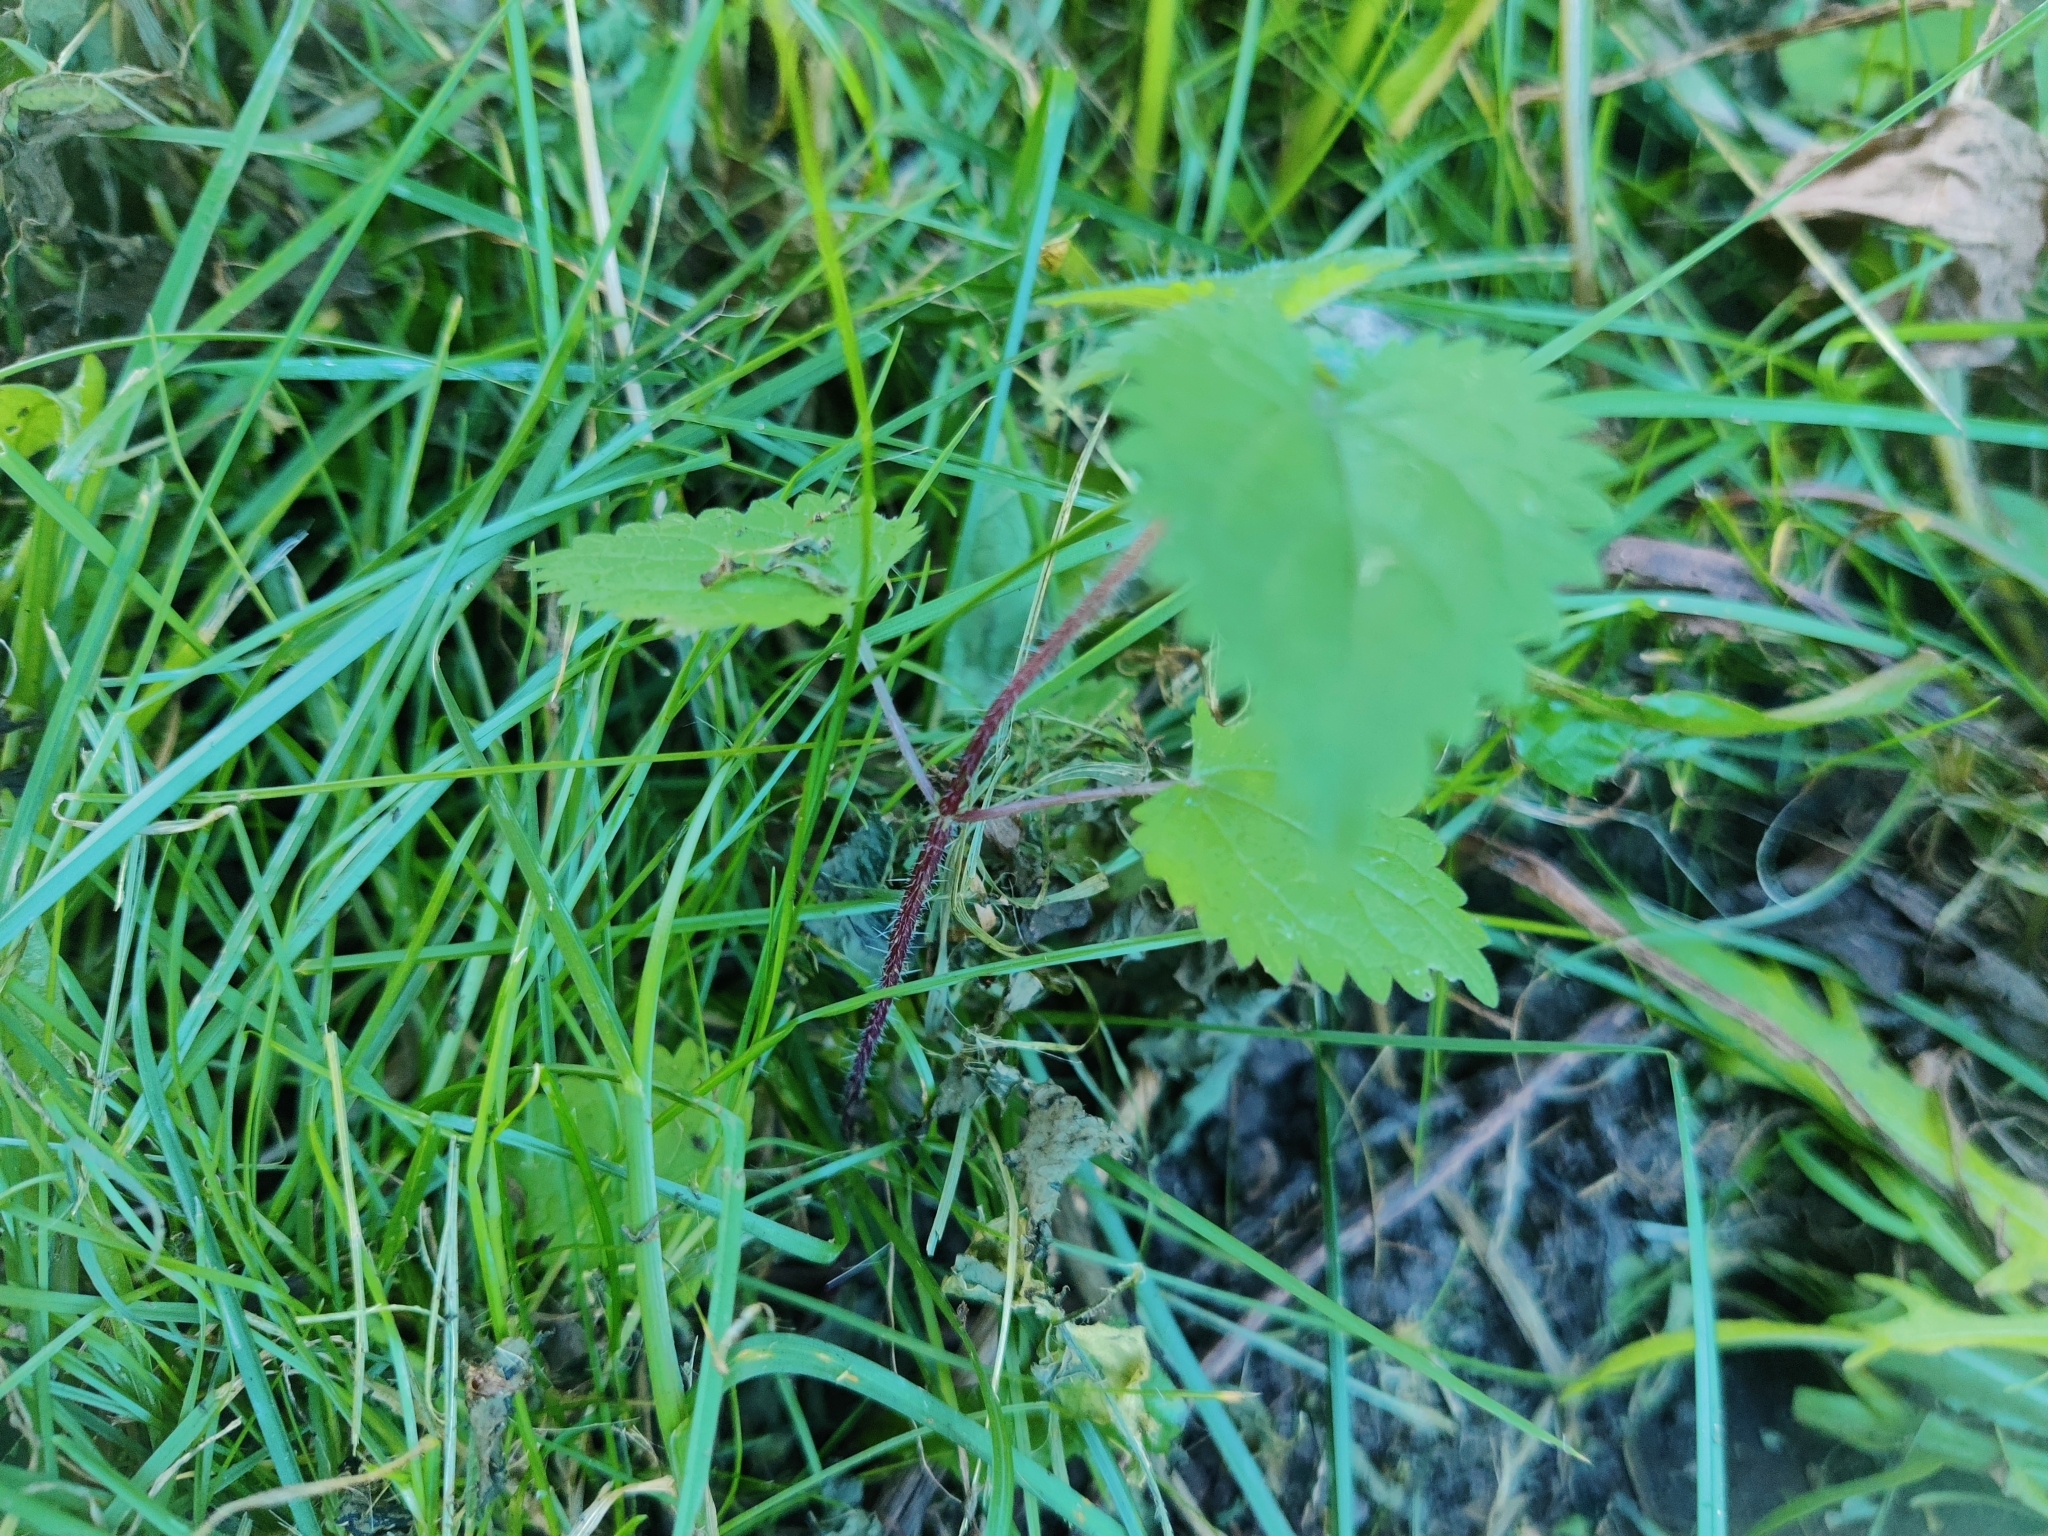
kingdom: Plantae
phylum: Tracheophyta
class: Magnoliopsida
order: Rosales
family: Urticaceae
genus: Urtica
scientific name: Urtica dioica
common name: Common nettle
